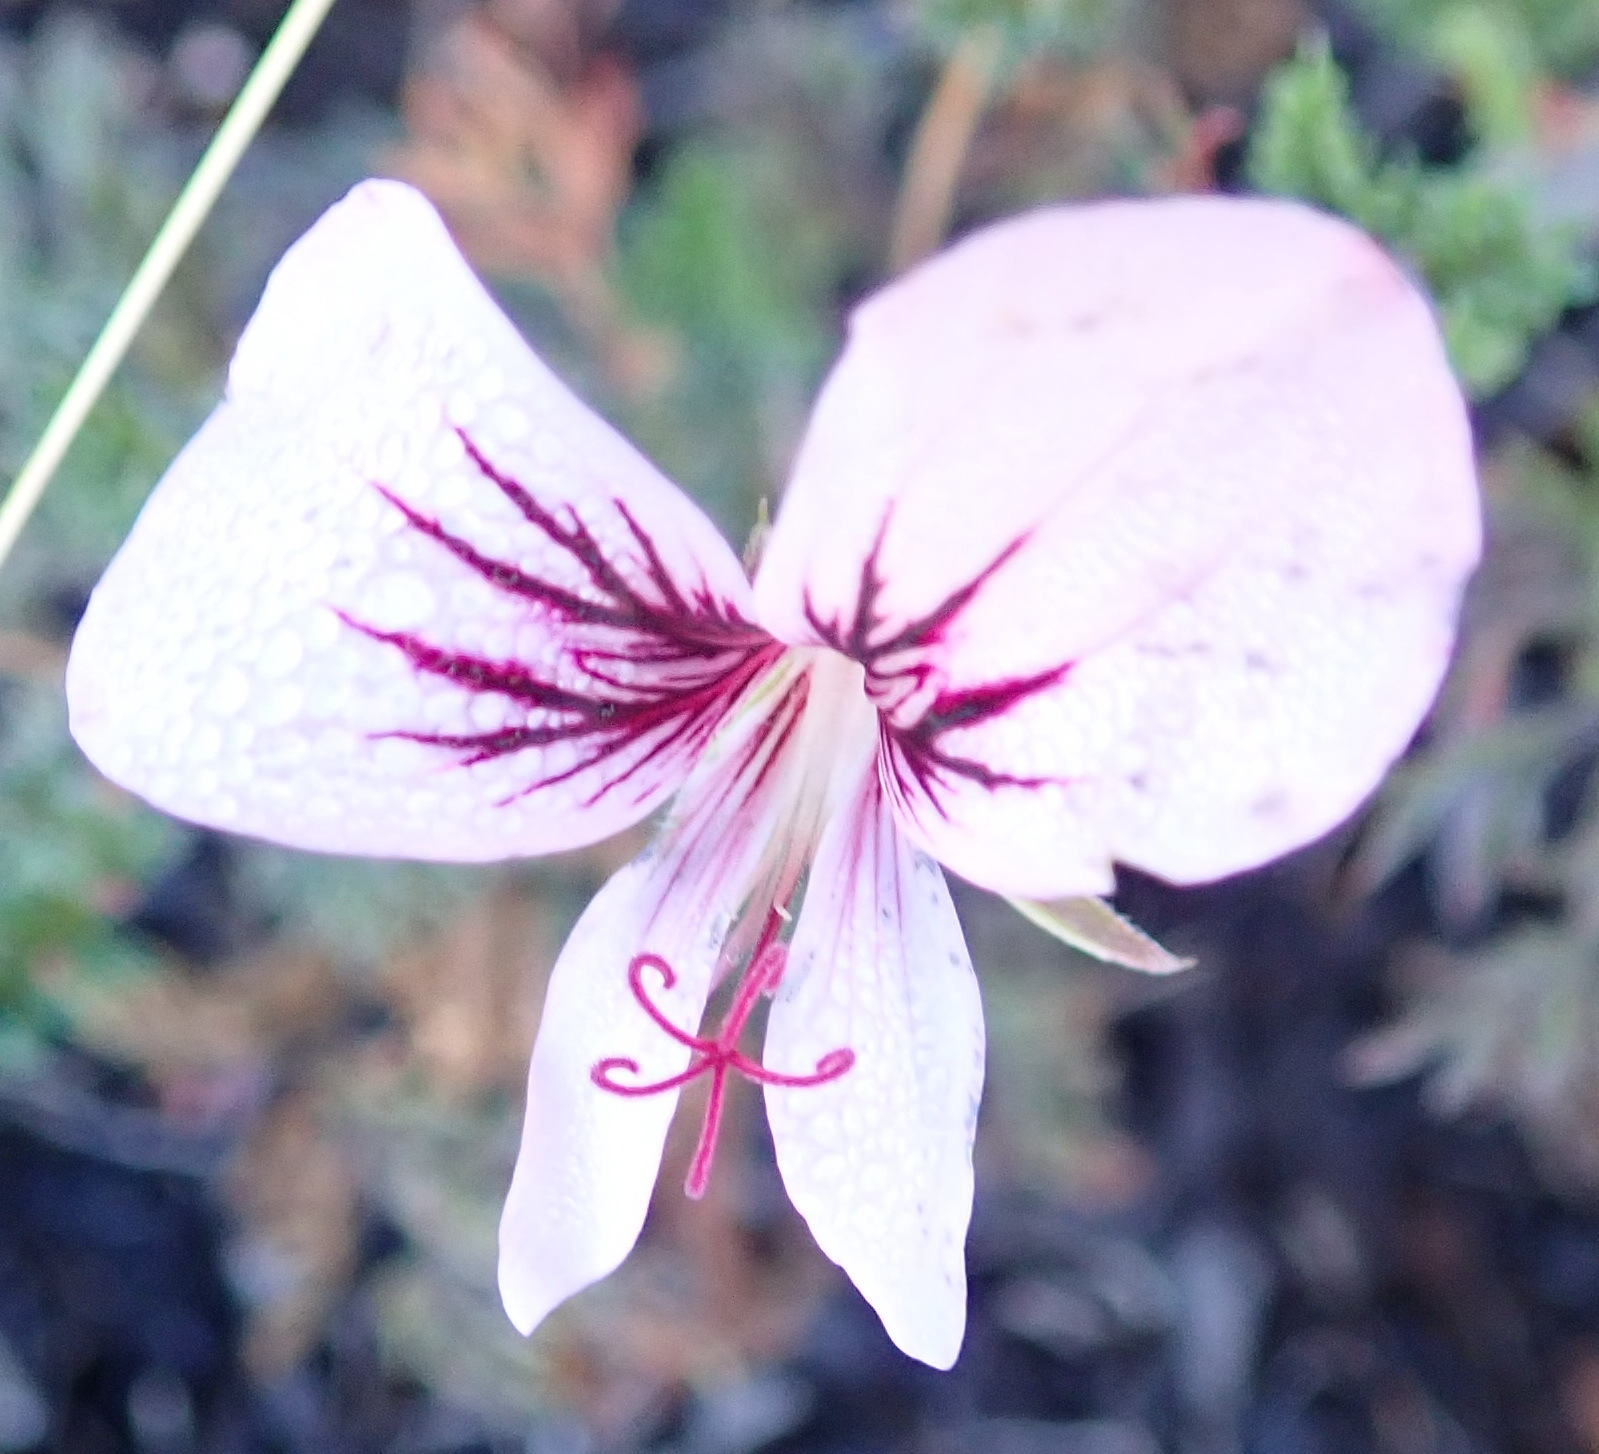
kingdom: Plantae
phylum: Tracheophyta
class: Magnoliopsida
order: Geraniales
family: Geraniaceae
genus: Pelargonium
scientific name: Pelargonium caucalifolium
